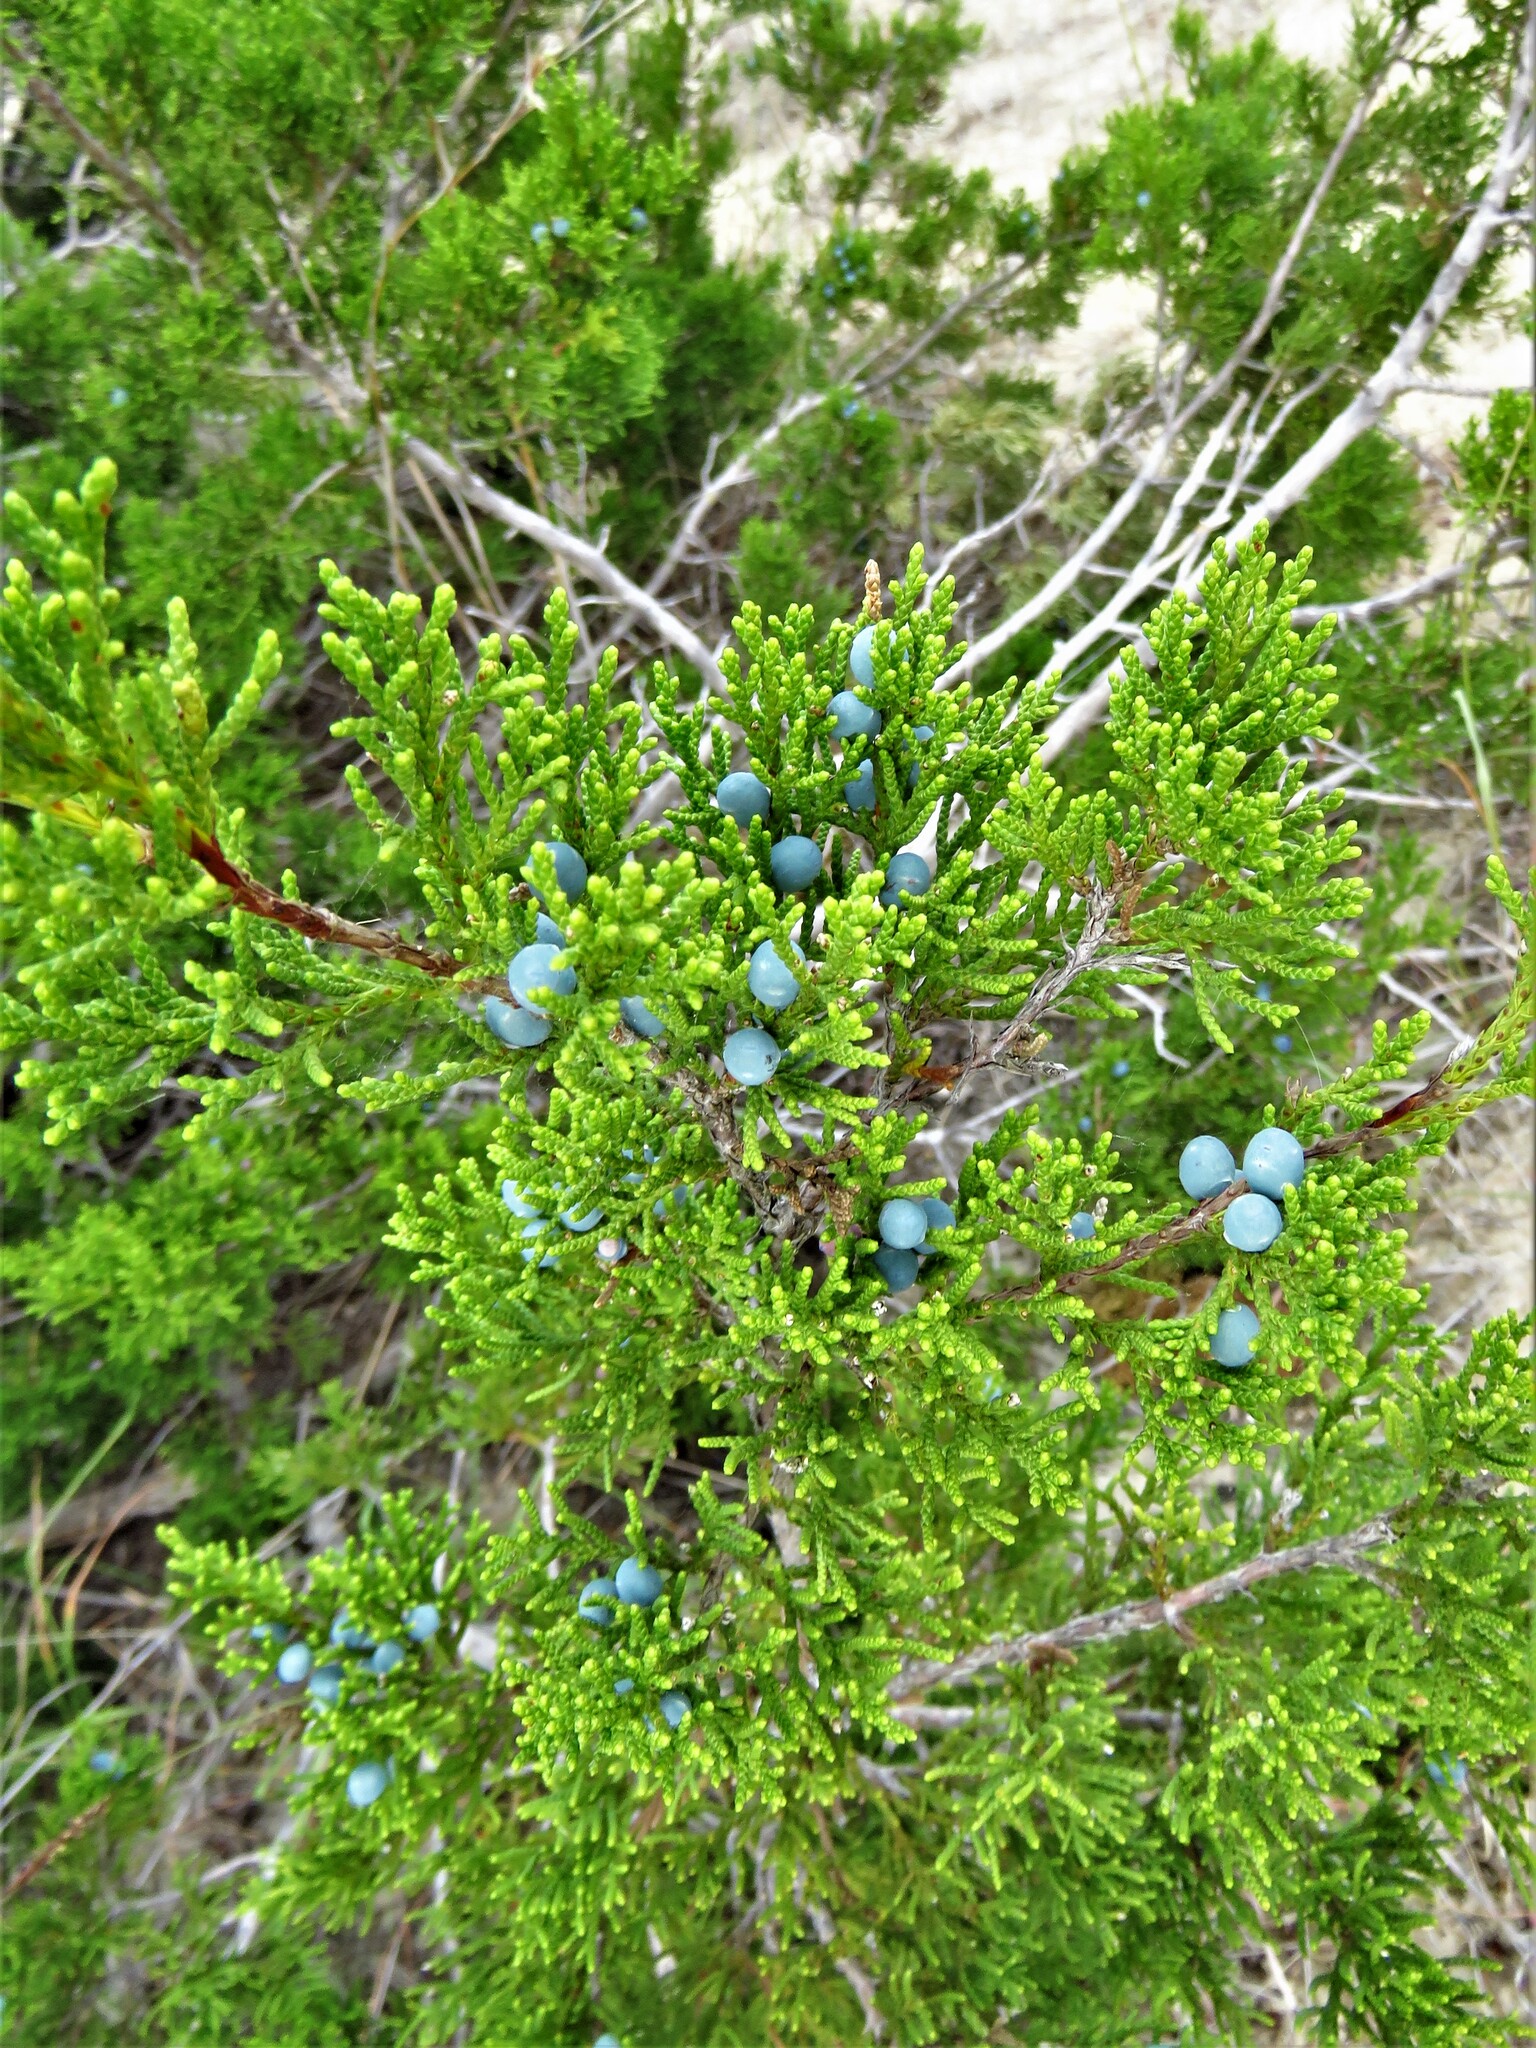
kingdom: Plantae
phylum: Tracheophyta
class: Pinopsida
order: Pinales
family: Cupressaceae
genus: Juniperus
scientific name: Juniperus ashei
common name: Mexican juniper
